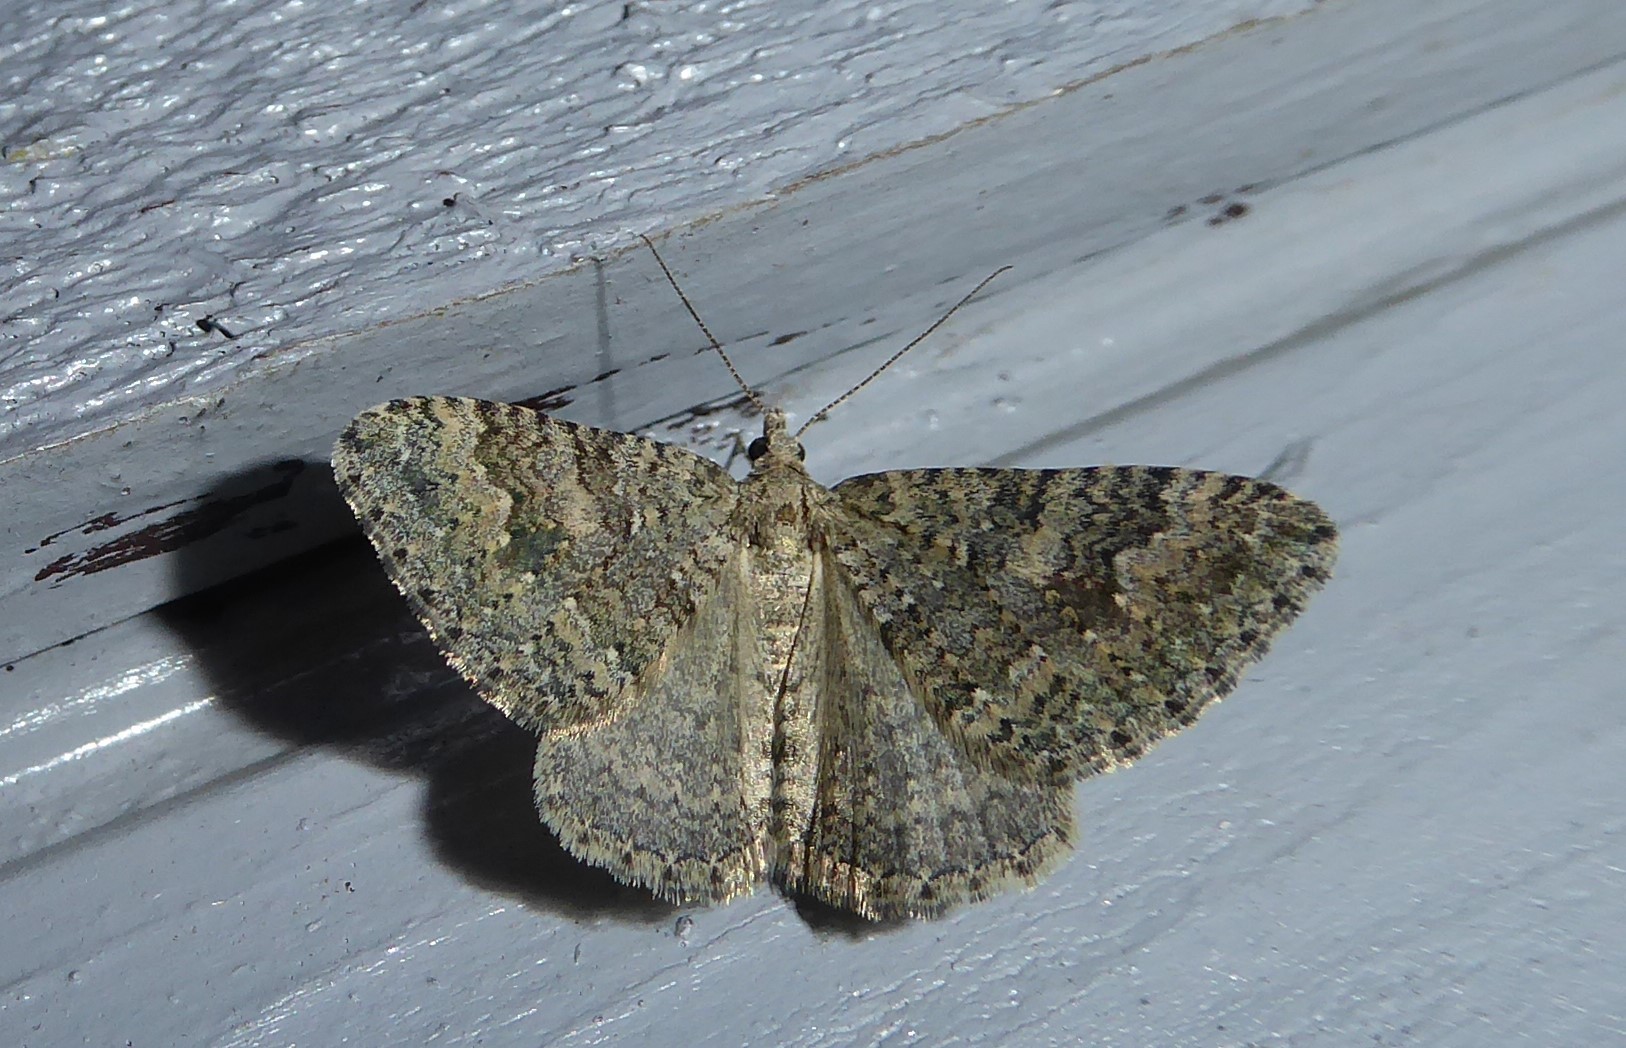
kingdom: Animalia
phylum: Arthropoda
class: Insecta
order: Lepidoptera
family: Geometridae
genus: Helastia
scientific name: Helastia corcularia
